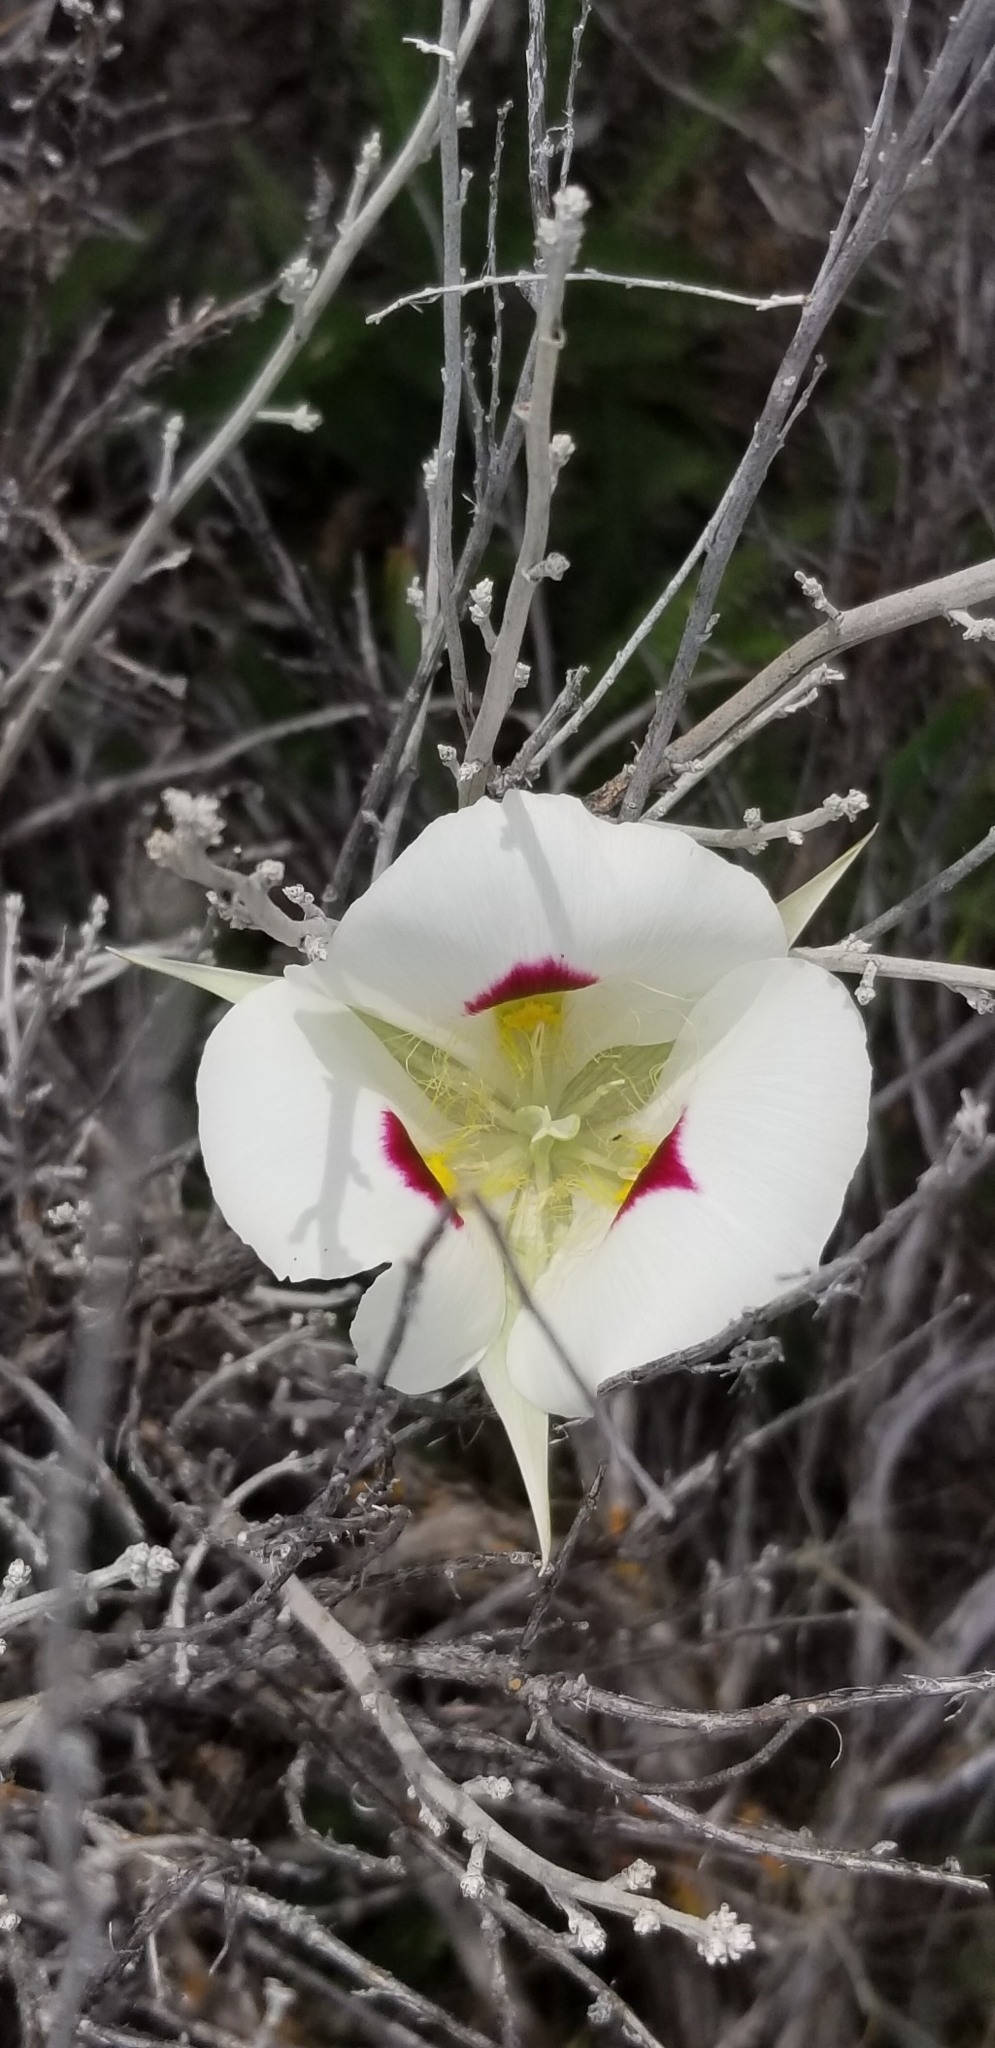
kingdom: Plantae
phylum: Tracheophyta
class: Liliopsida
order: Liliales
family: Liliaceae
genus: Calochortus
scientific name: Calochortus eurycarpus
